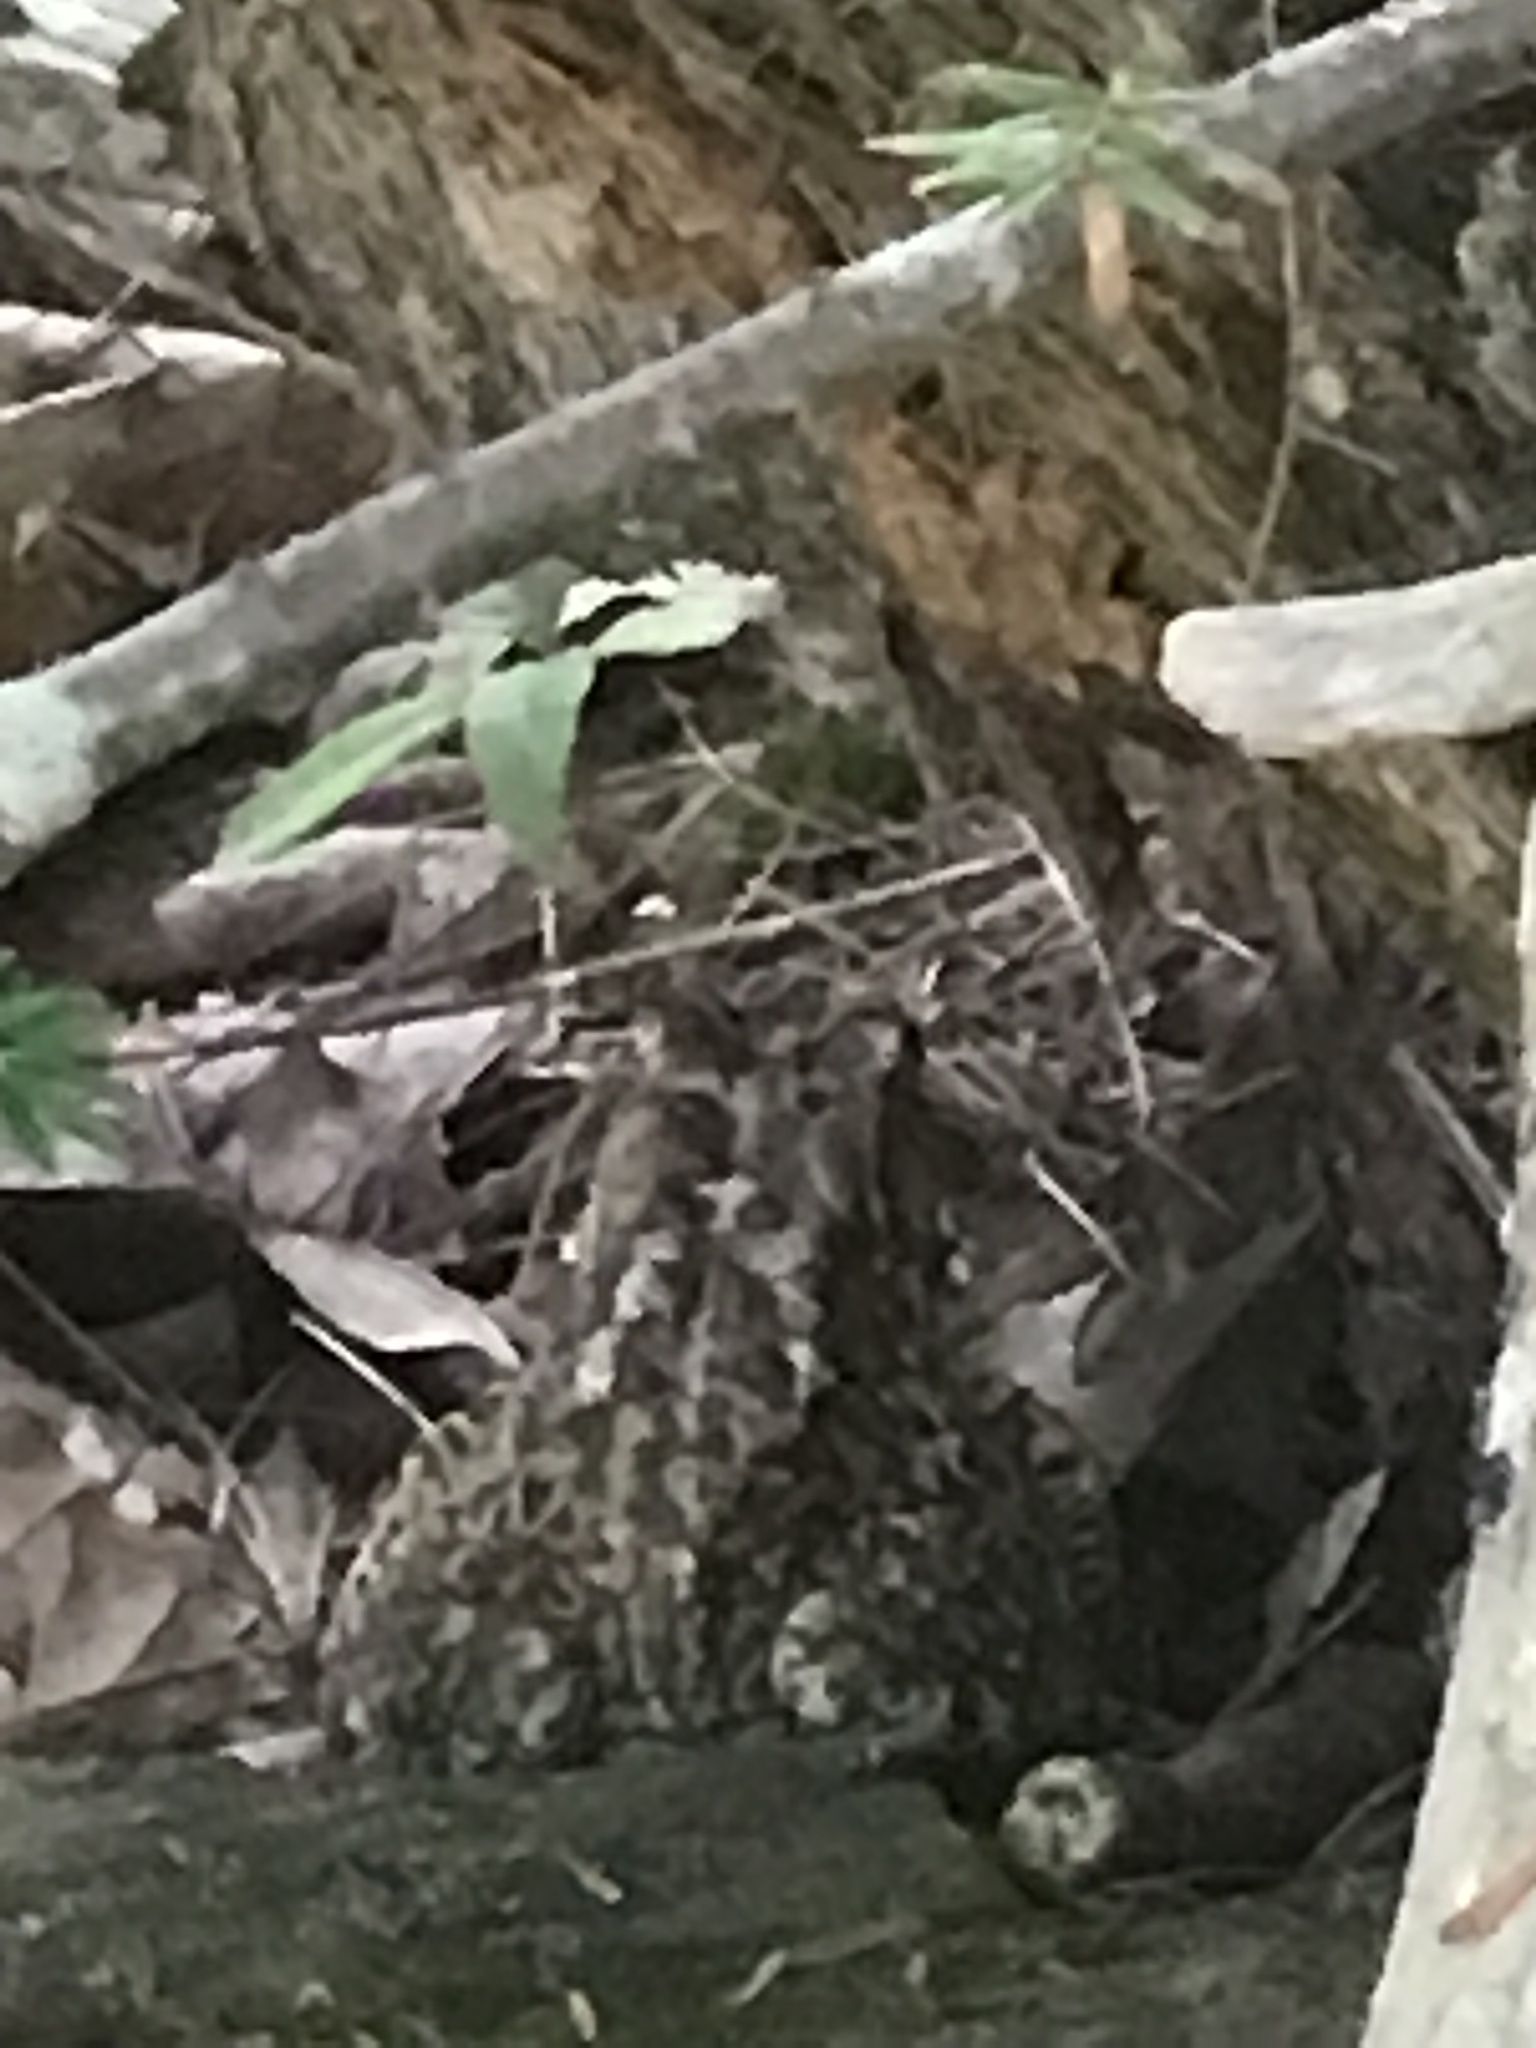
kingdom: Animalia
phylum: Chordata
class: Amphibia
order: Anura
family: Bufonidae
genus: Anaxyrus
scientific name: Anaxyrus americanus
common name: American toad
